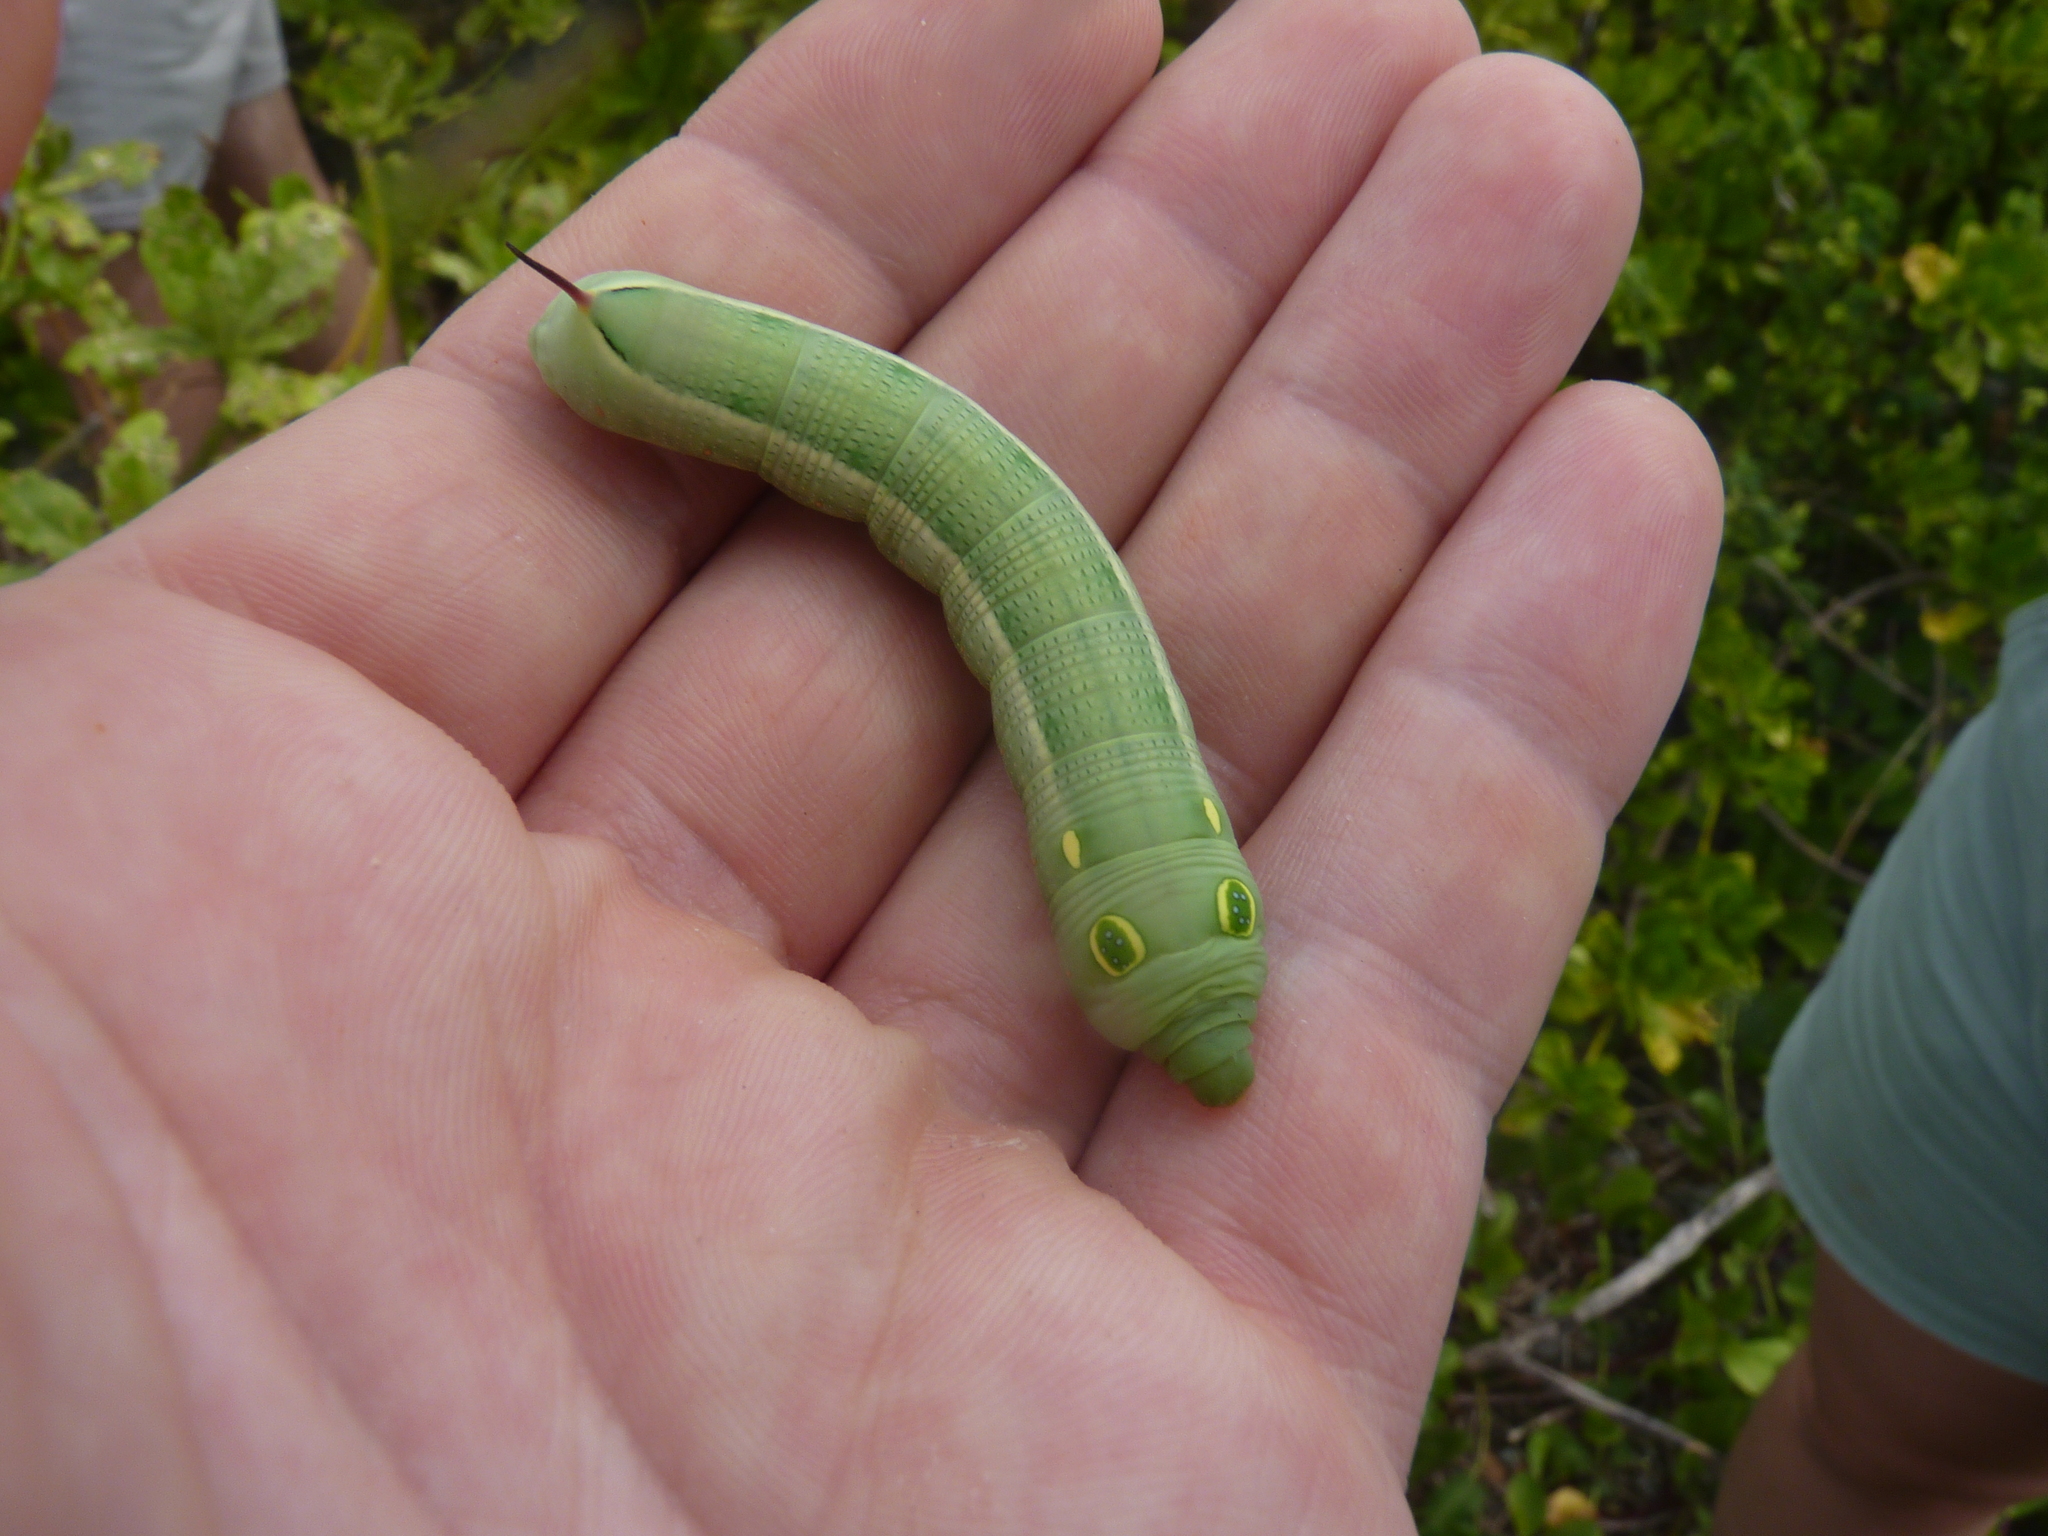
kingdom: Animalia
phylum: Arthropoda
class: Insecta
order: Lepidoptera
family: Sphingidae
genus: Hippotion
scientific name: Hippotion celerio
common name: Silver-striped hawk-moth
